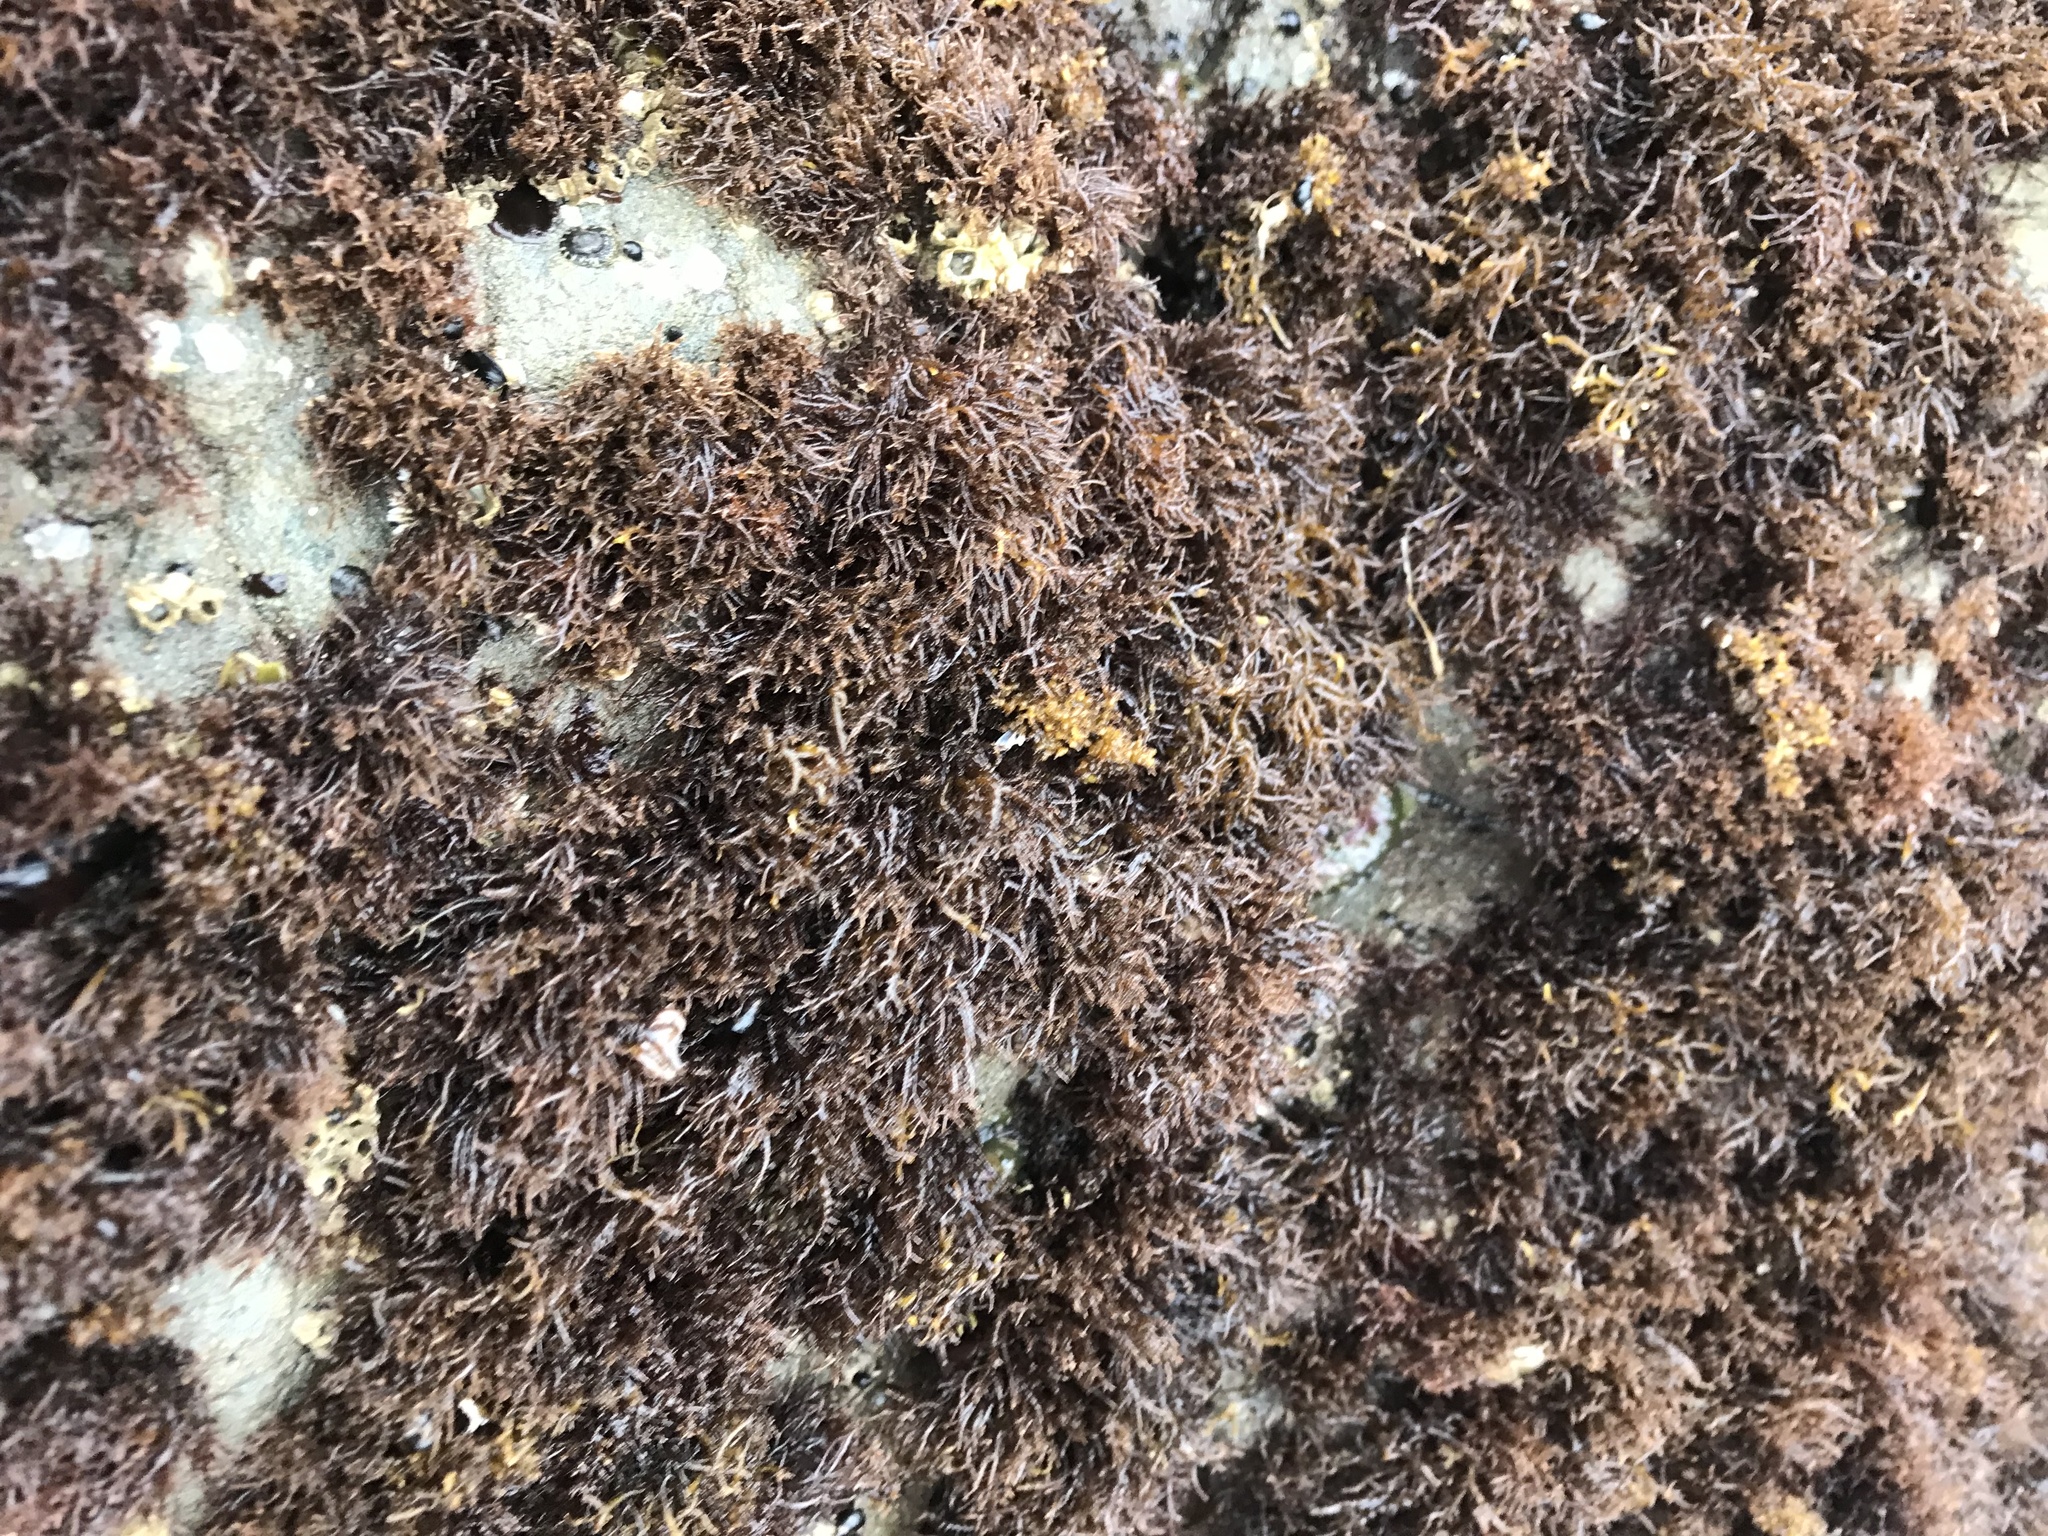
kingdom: Plantae
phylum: Rhodophyta
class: Florideophyceae
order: Gigartinales
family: Endocladiaceae
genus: Endocladia
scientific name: Endocladia muricata
